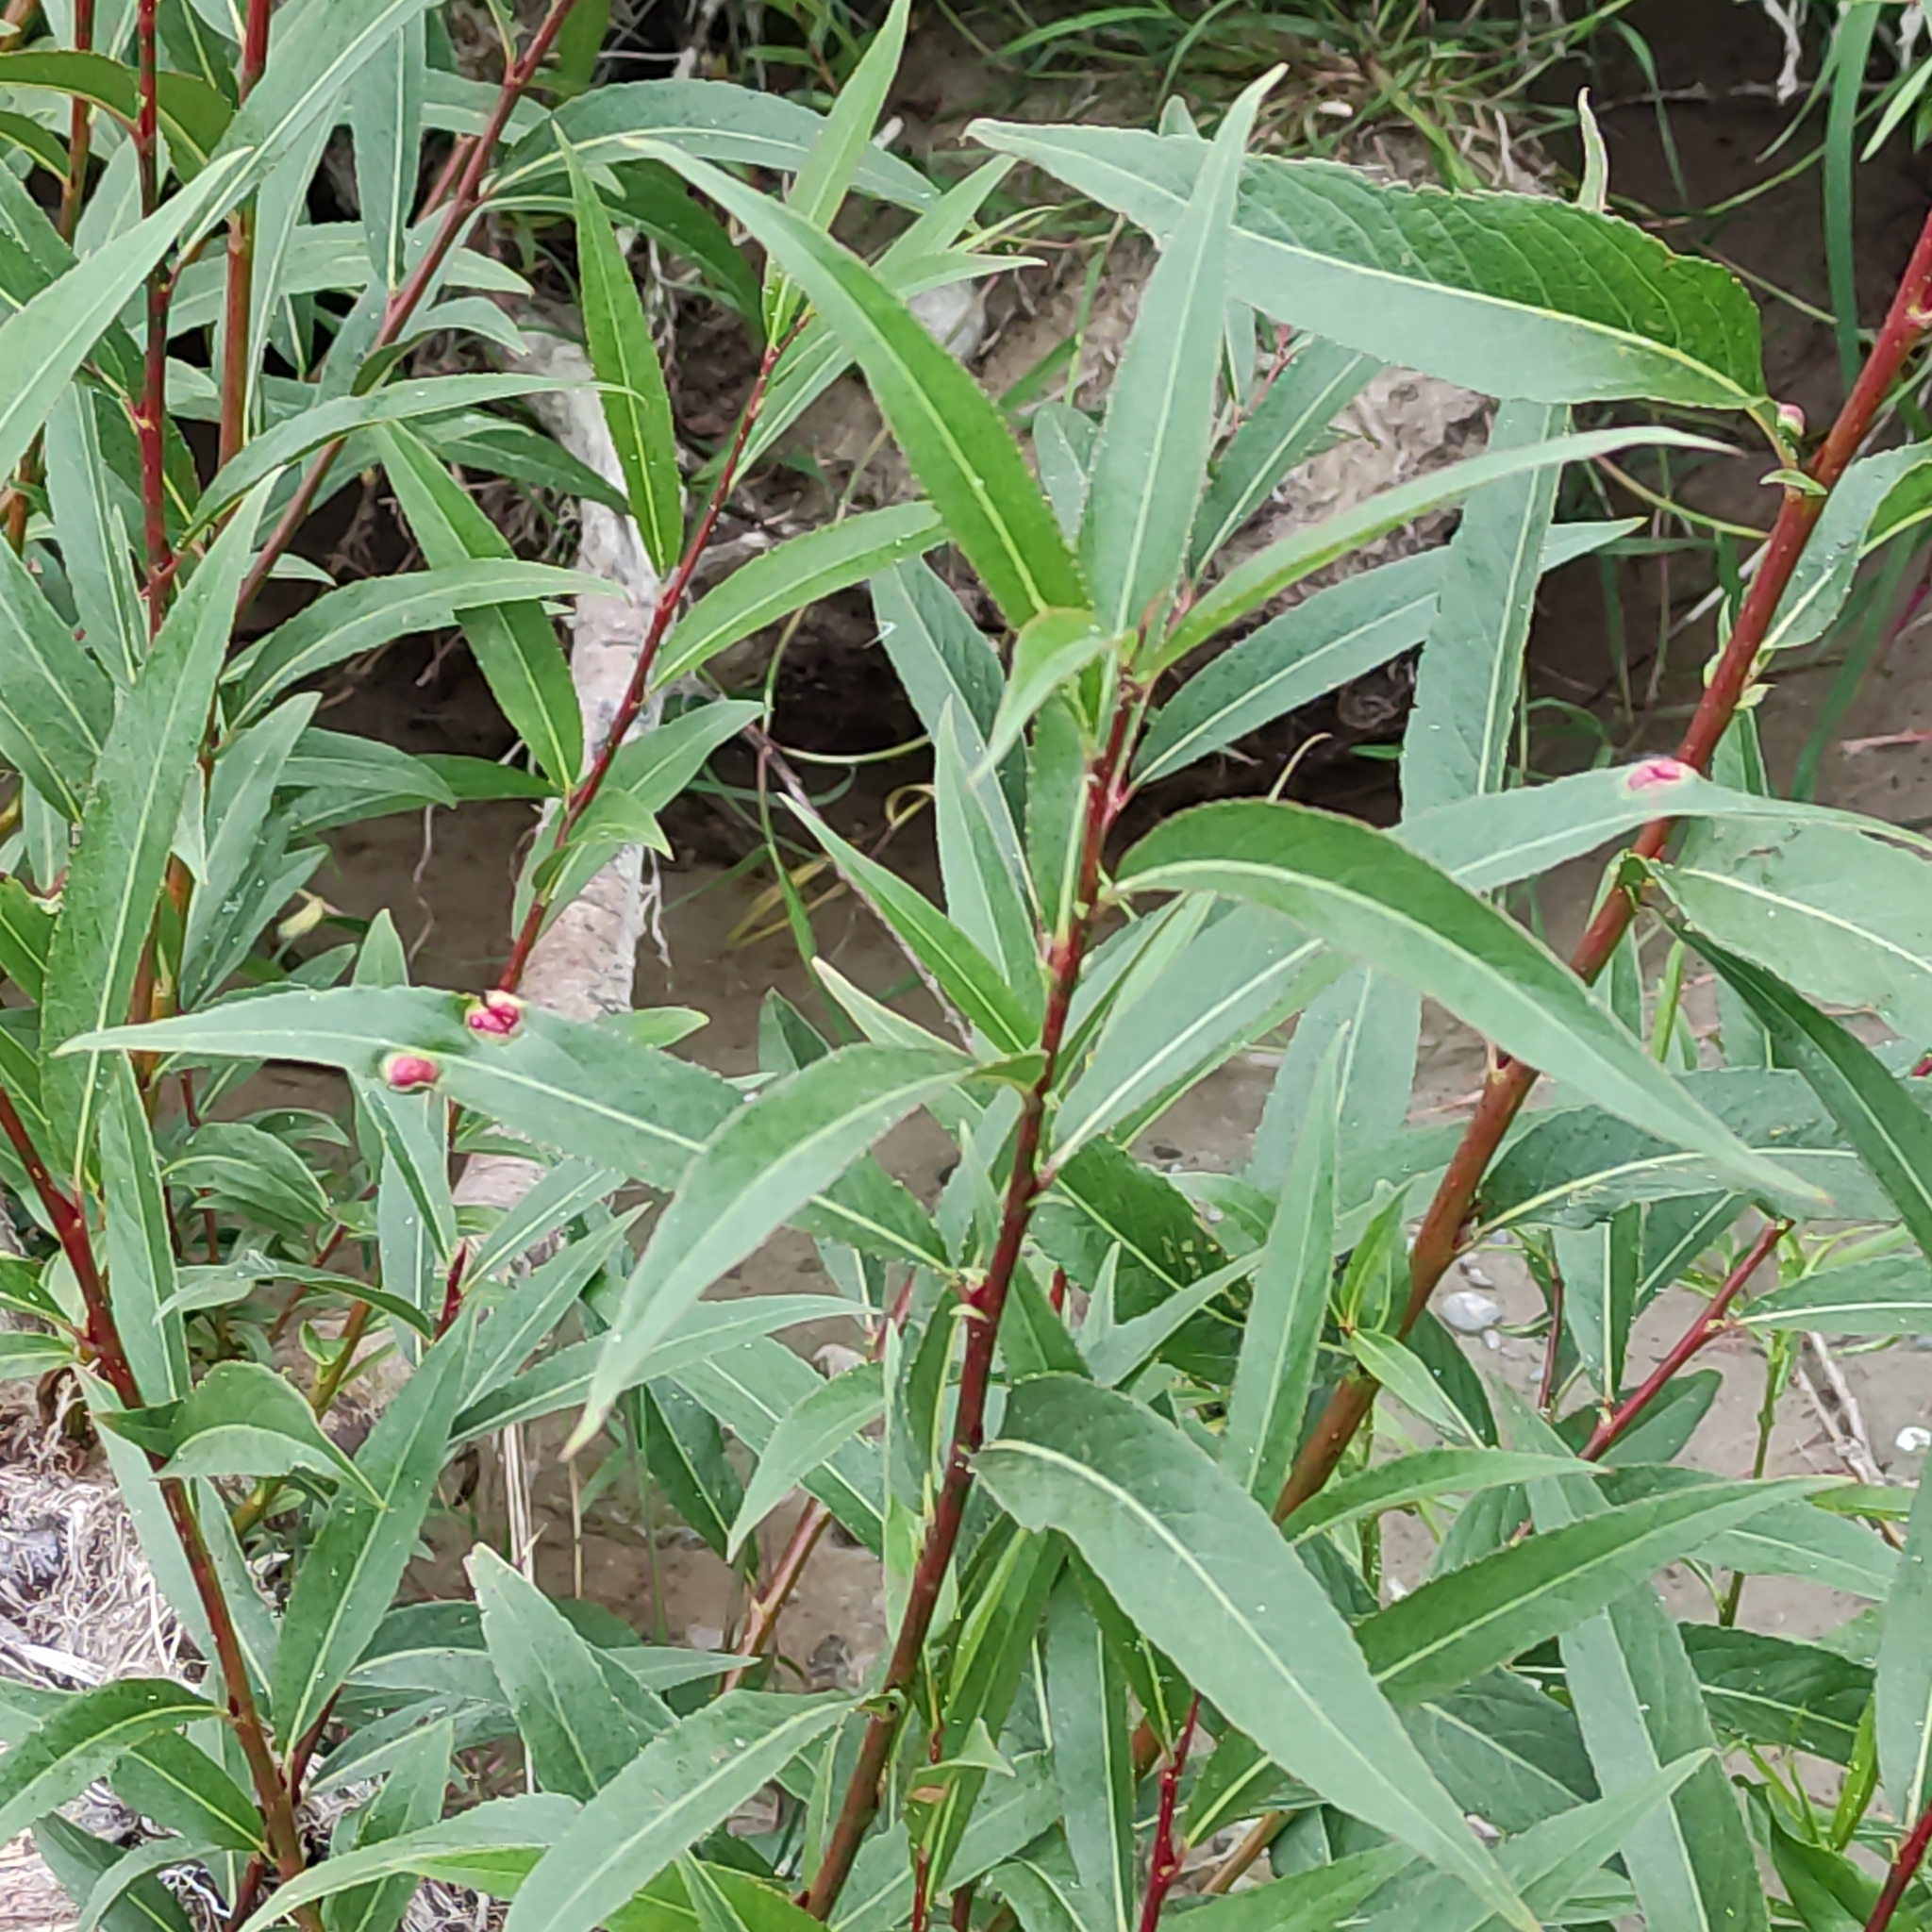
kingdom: Plantae
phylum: Tracheophyta
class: Magnoliopsida
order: Malpighiales
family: Salicaceae
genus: Salix
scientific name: Salix fragilis
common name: Crack willow
